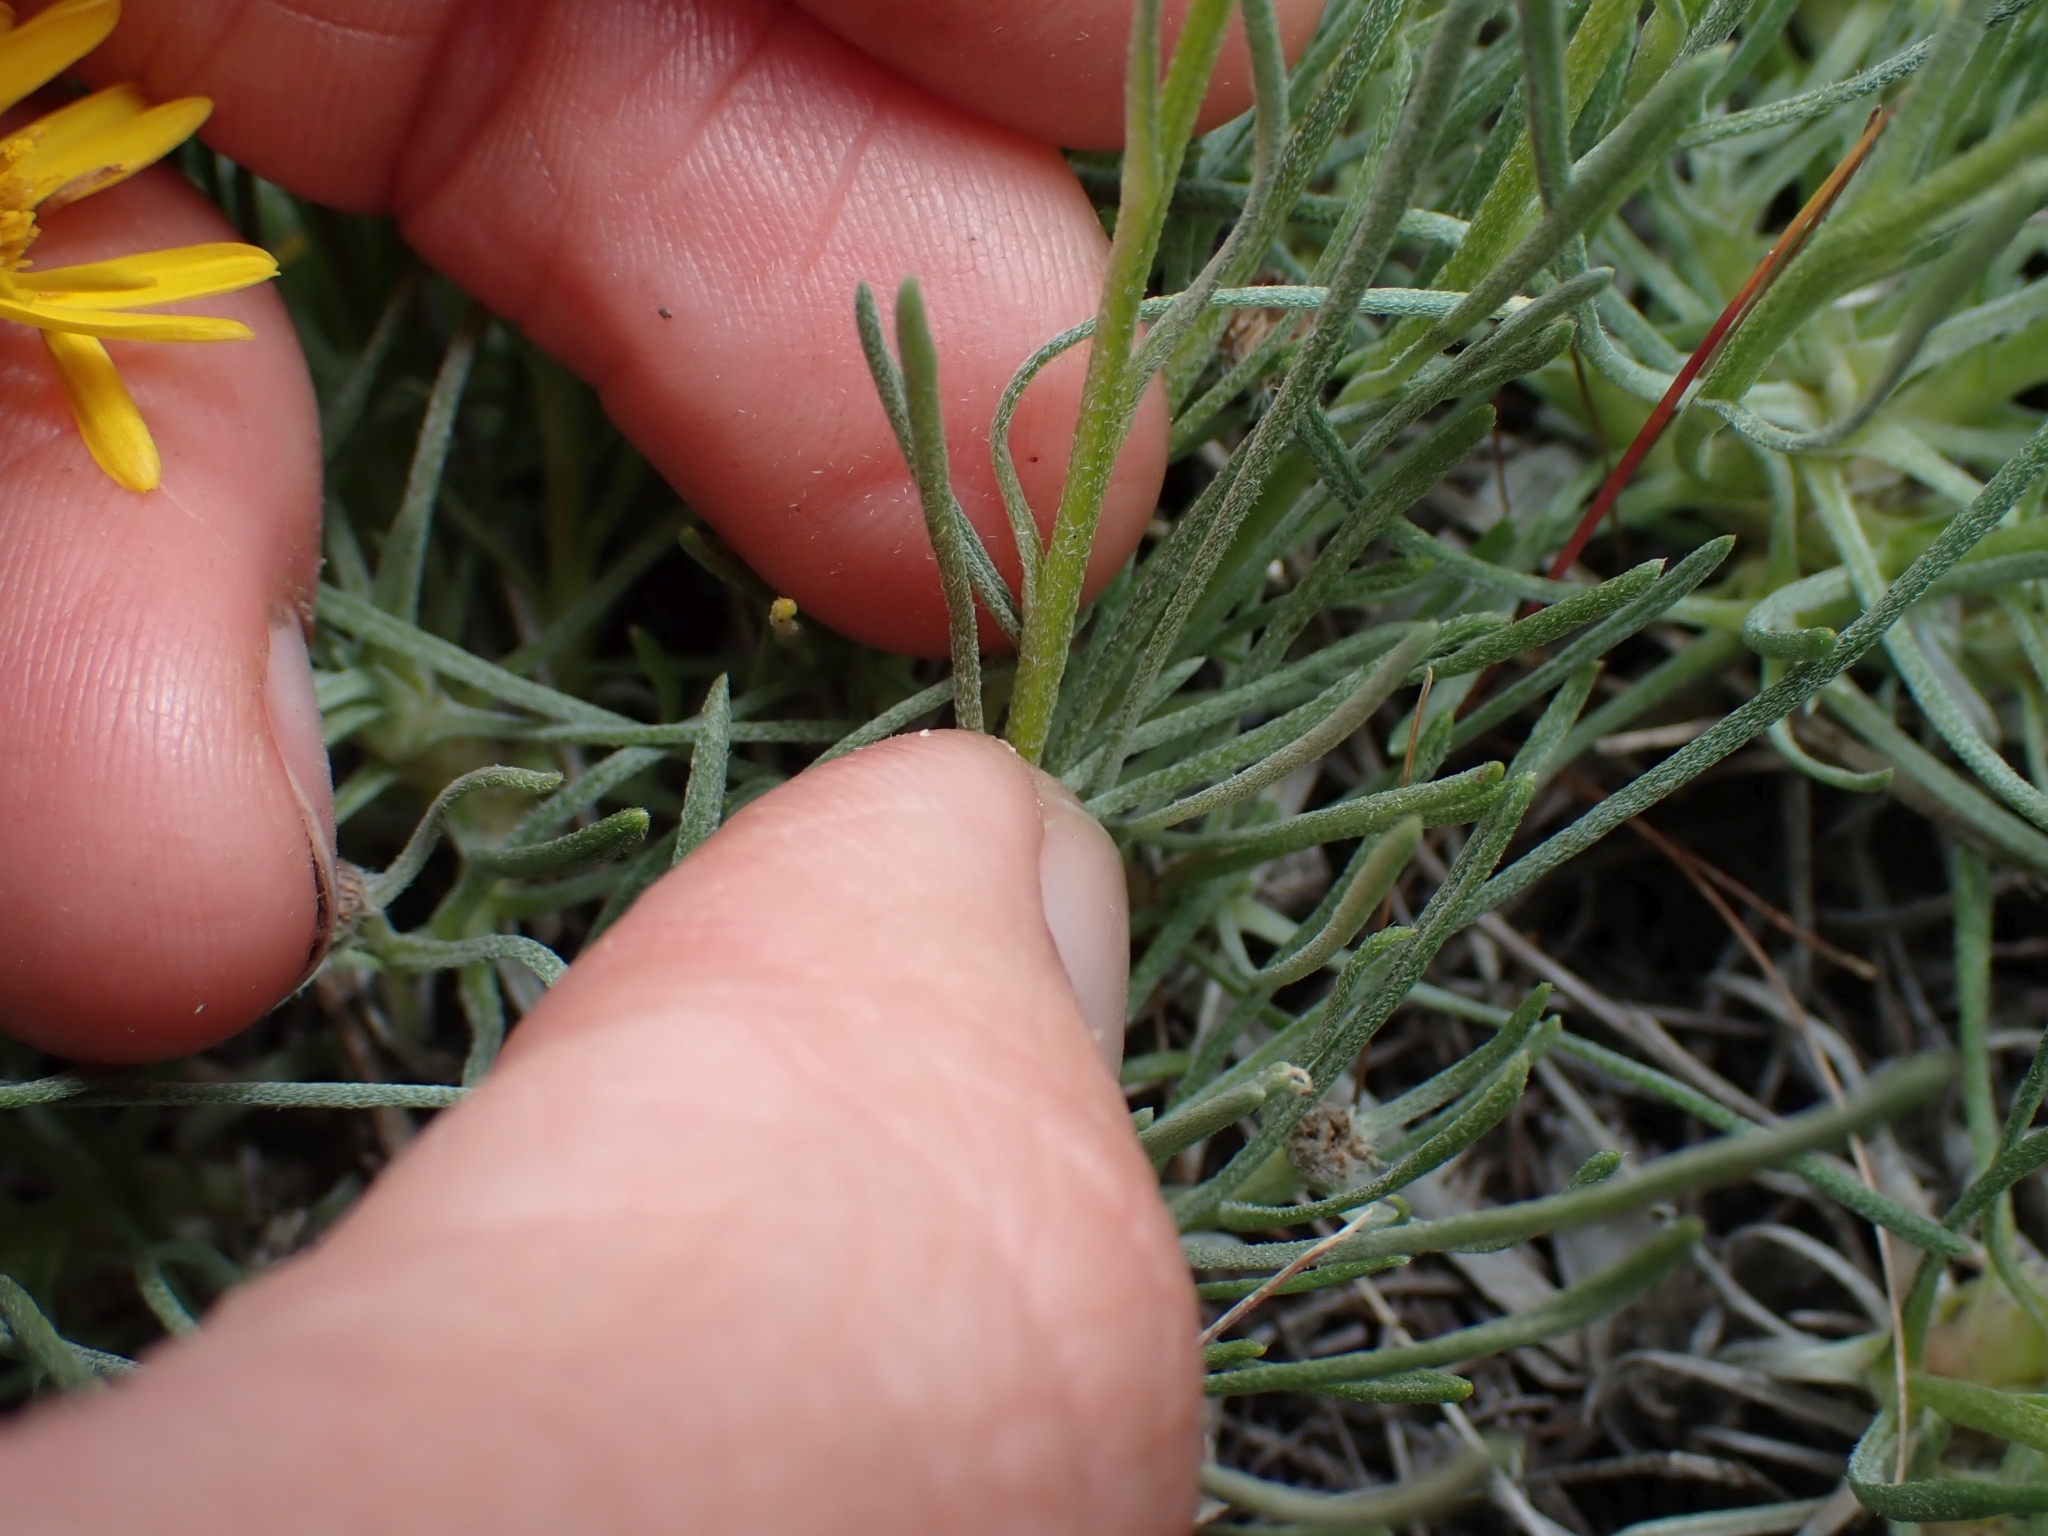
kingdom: Plantae
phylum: Tracheophyta
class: Magnoliopsida
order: Asterales
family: Asteraceae
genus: Erigeron
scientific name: Erigeron linearis
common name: Desert yellow fleabane
